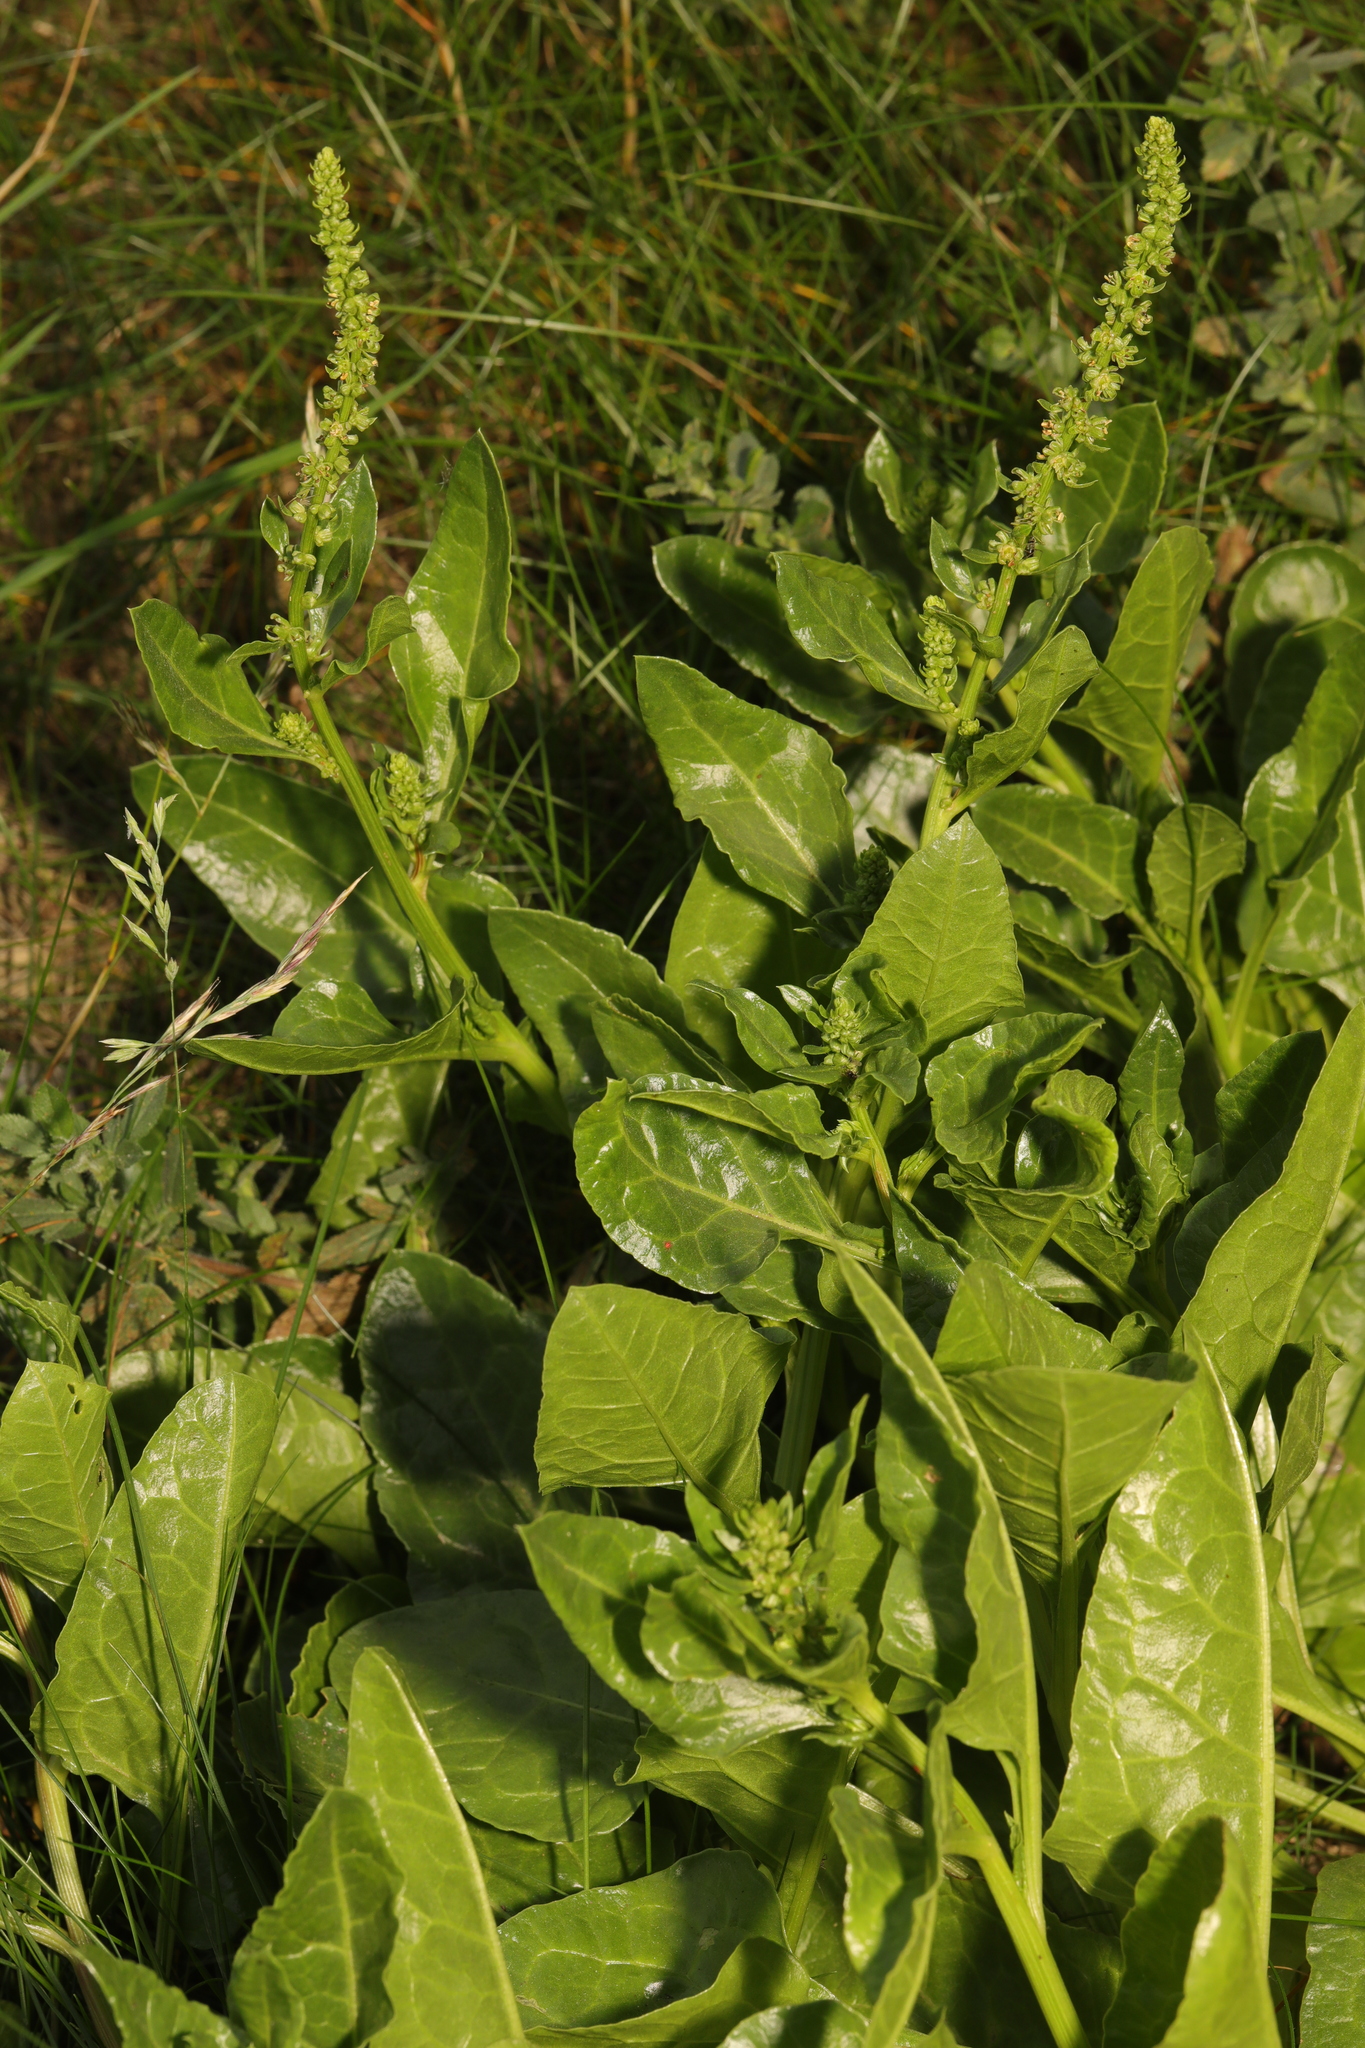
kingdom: Plantae
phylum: Tracheophyta
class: Magnoliopsida
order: Caryophyllales
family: Amaranthaceae
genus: Beta
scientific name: Beta vulgaris
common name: Beet
